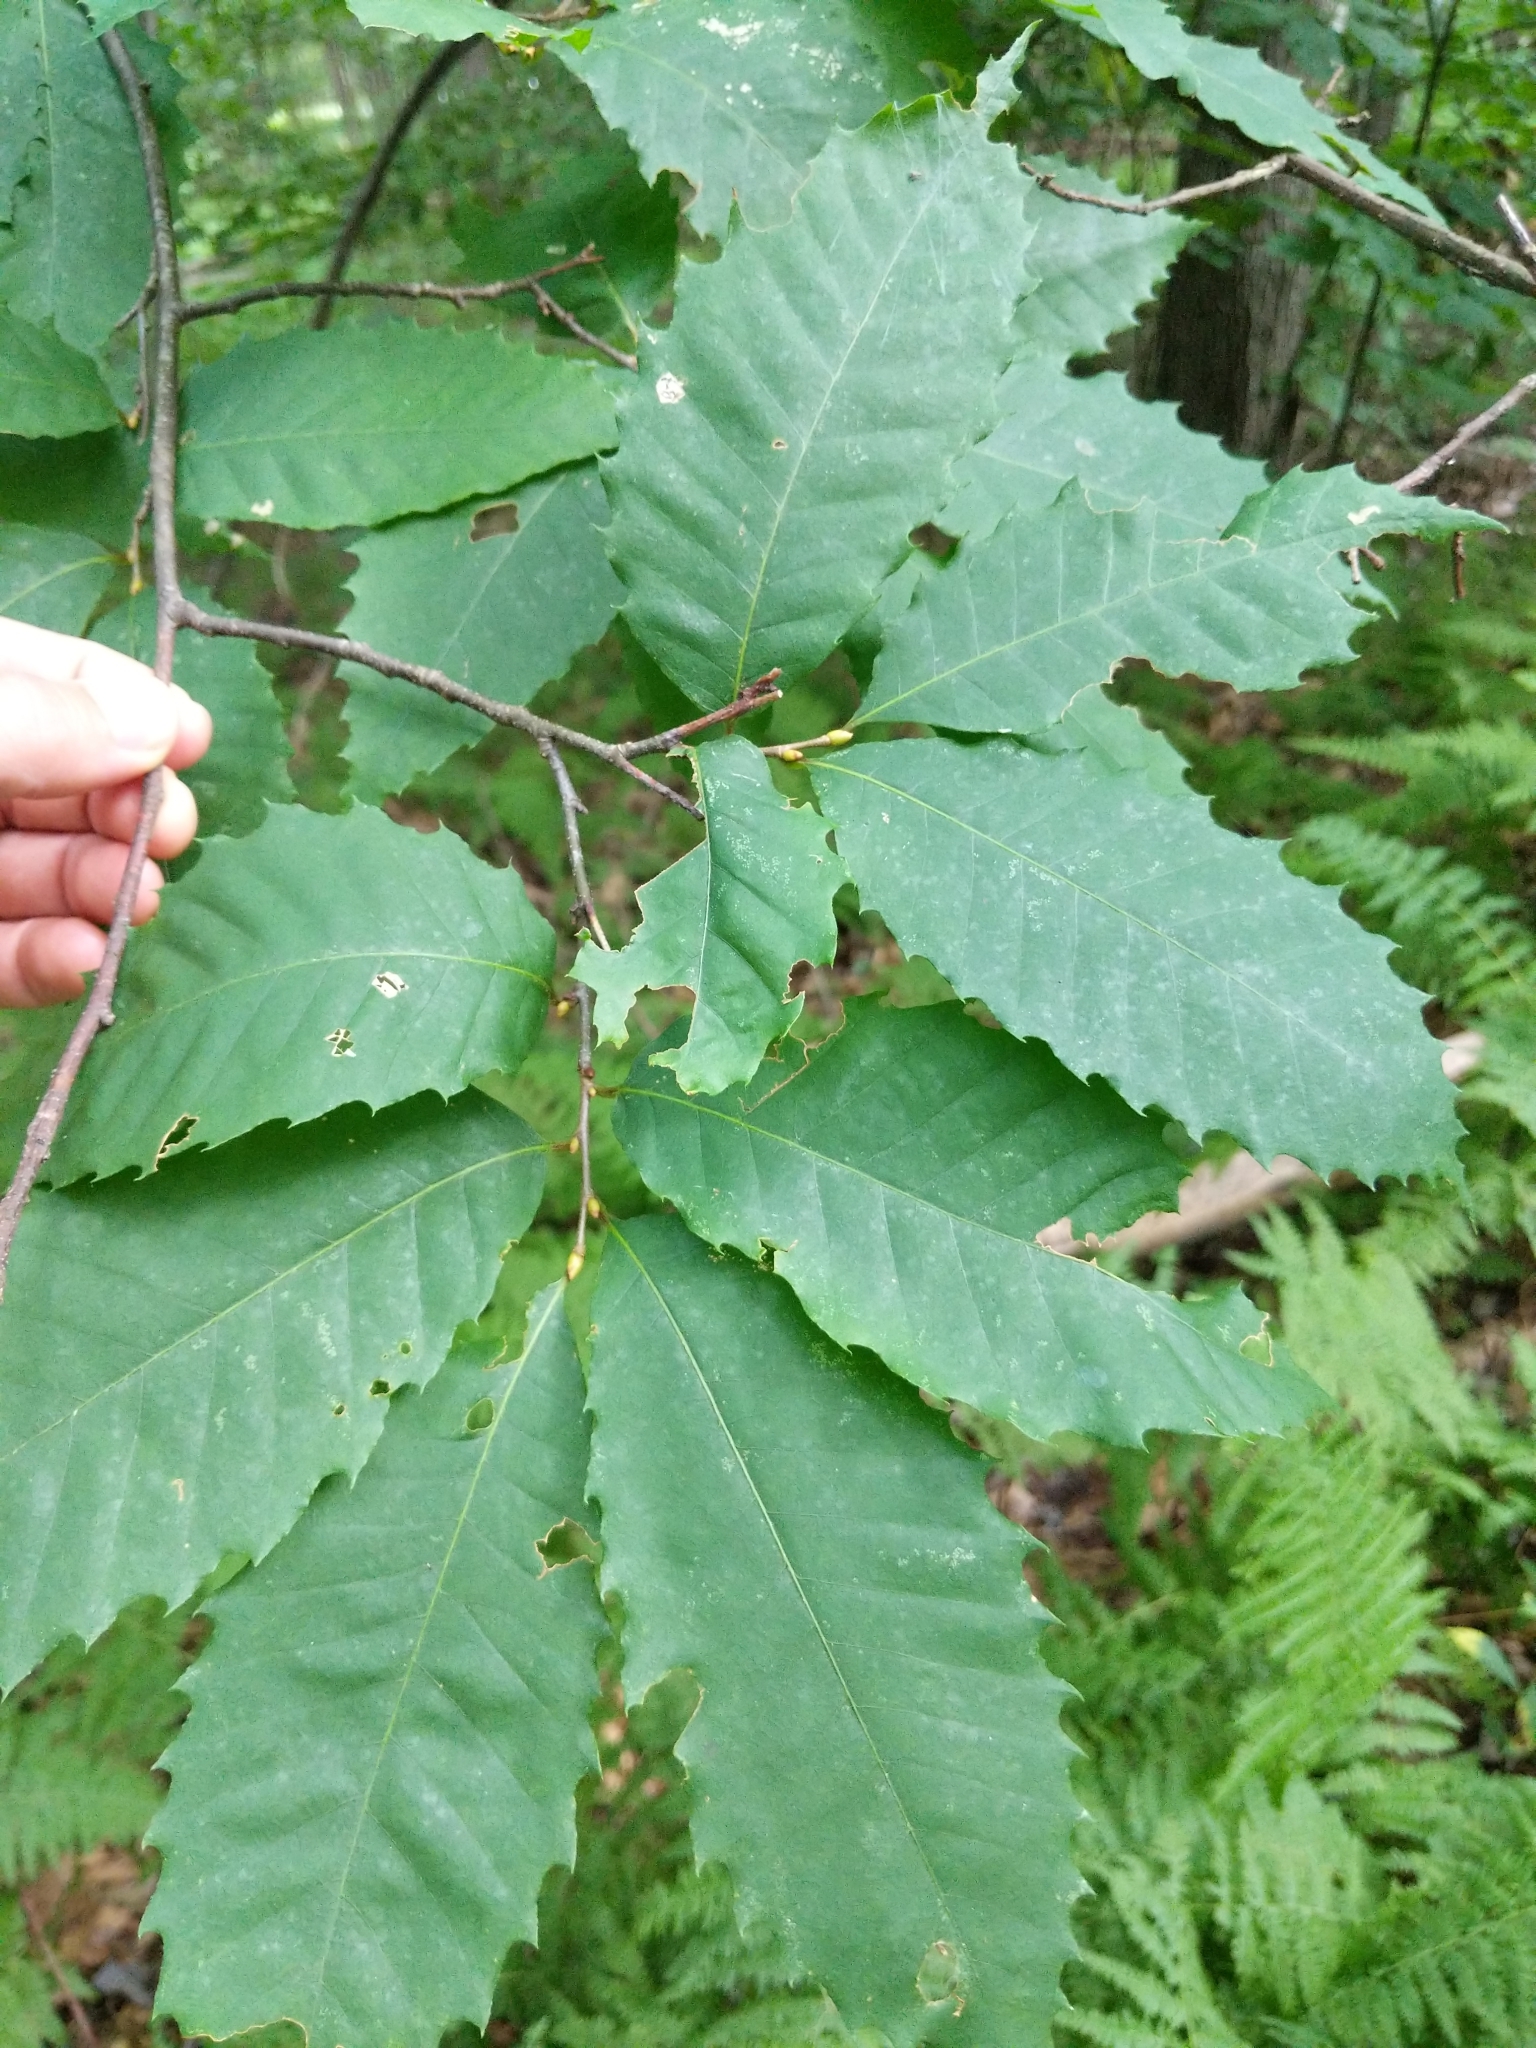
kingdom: Plantae
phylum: Tracheophyta
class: Magnoliopsida
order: Fagales
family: Fagaceae
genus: Castanea
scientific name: Castanea dentata
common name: American chestnut
